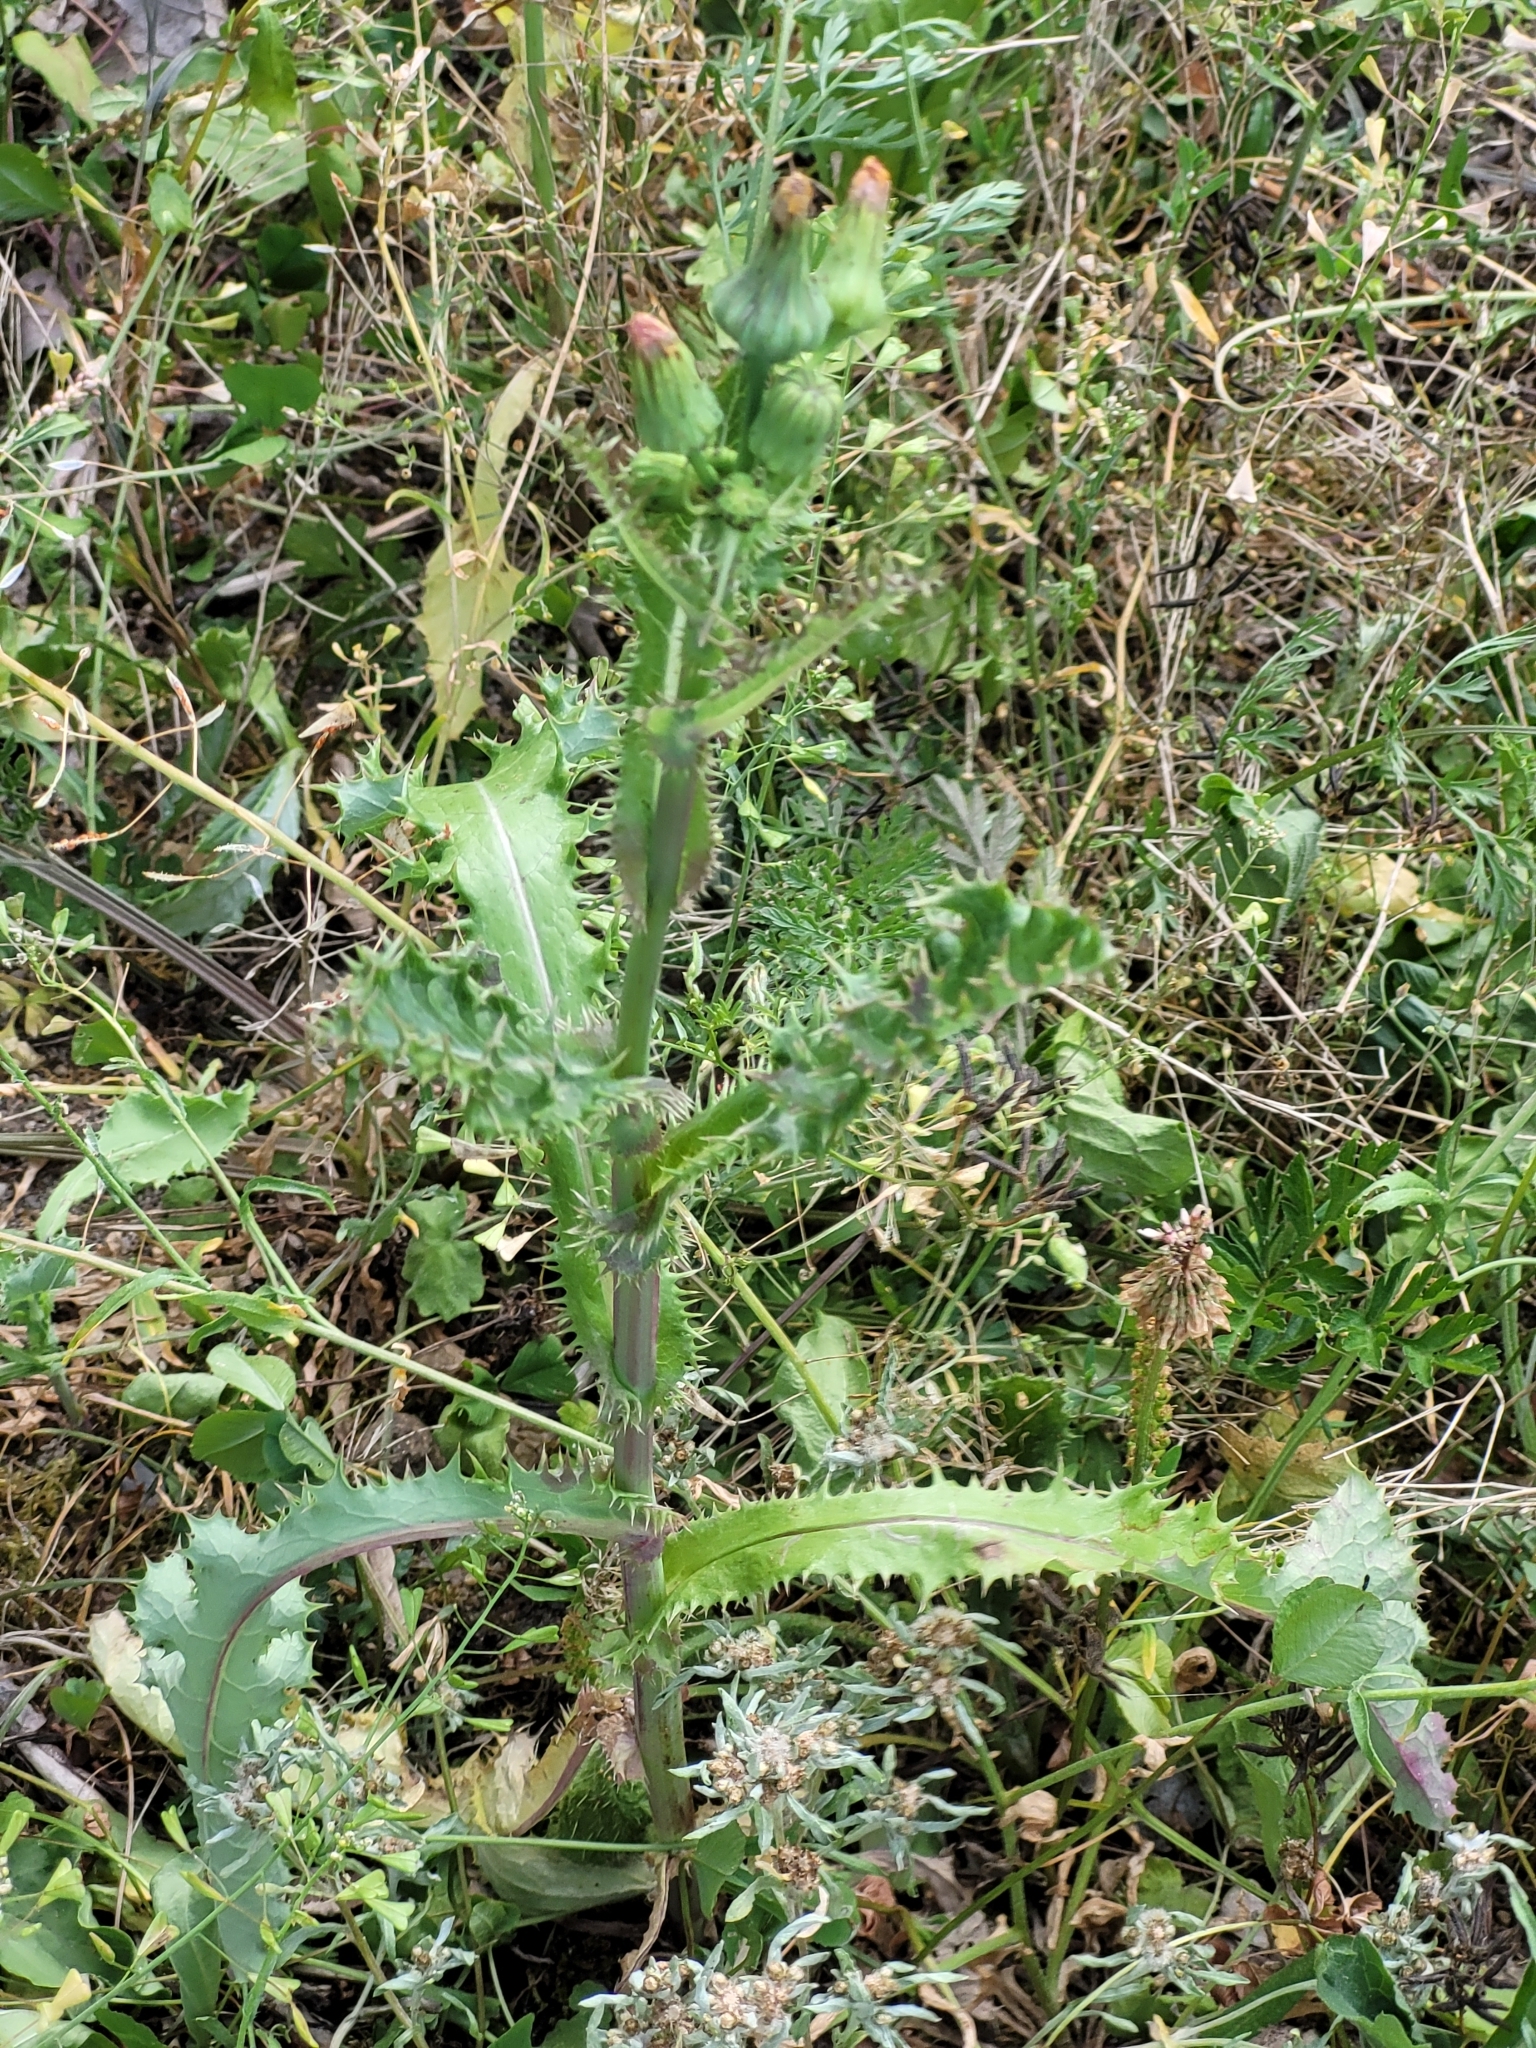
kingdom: Plantae
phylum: Tracheophyta
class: Magnoliopsida
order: Asterales
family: Asteraceae
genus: Sonchus
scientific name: Sonchus asper
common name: Prickly sow-thistle
